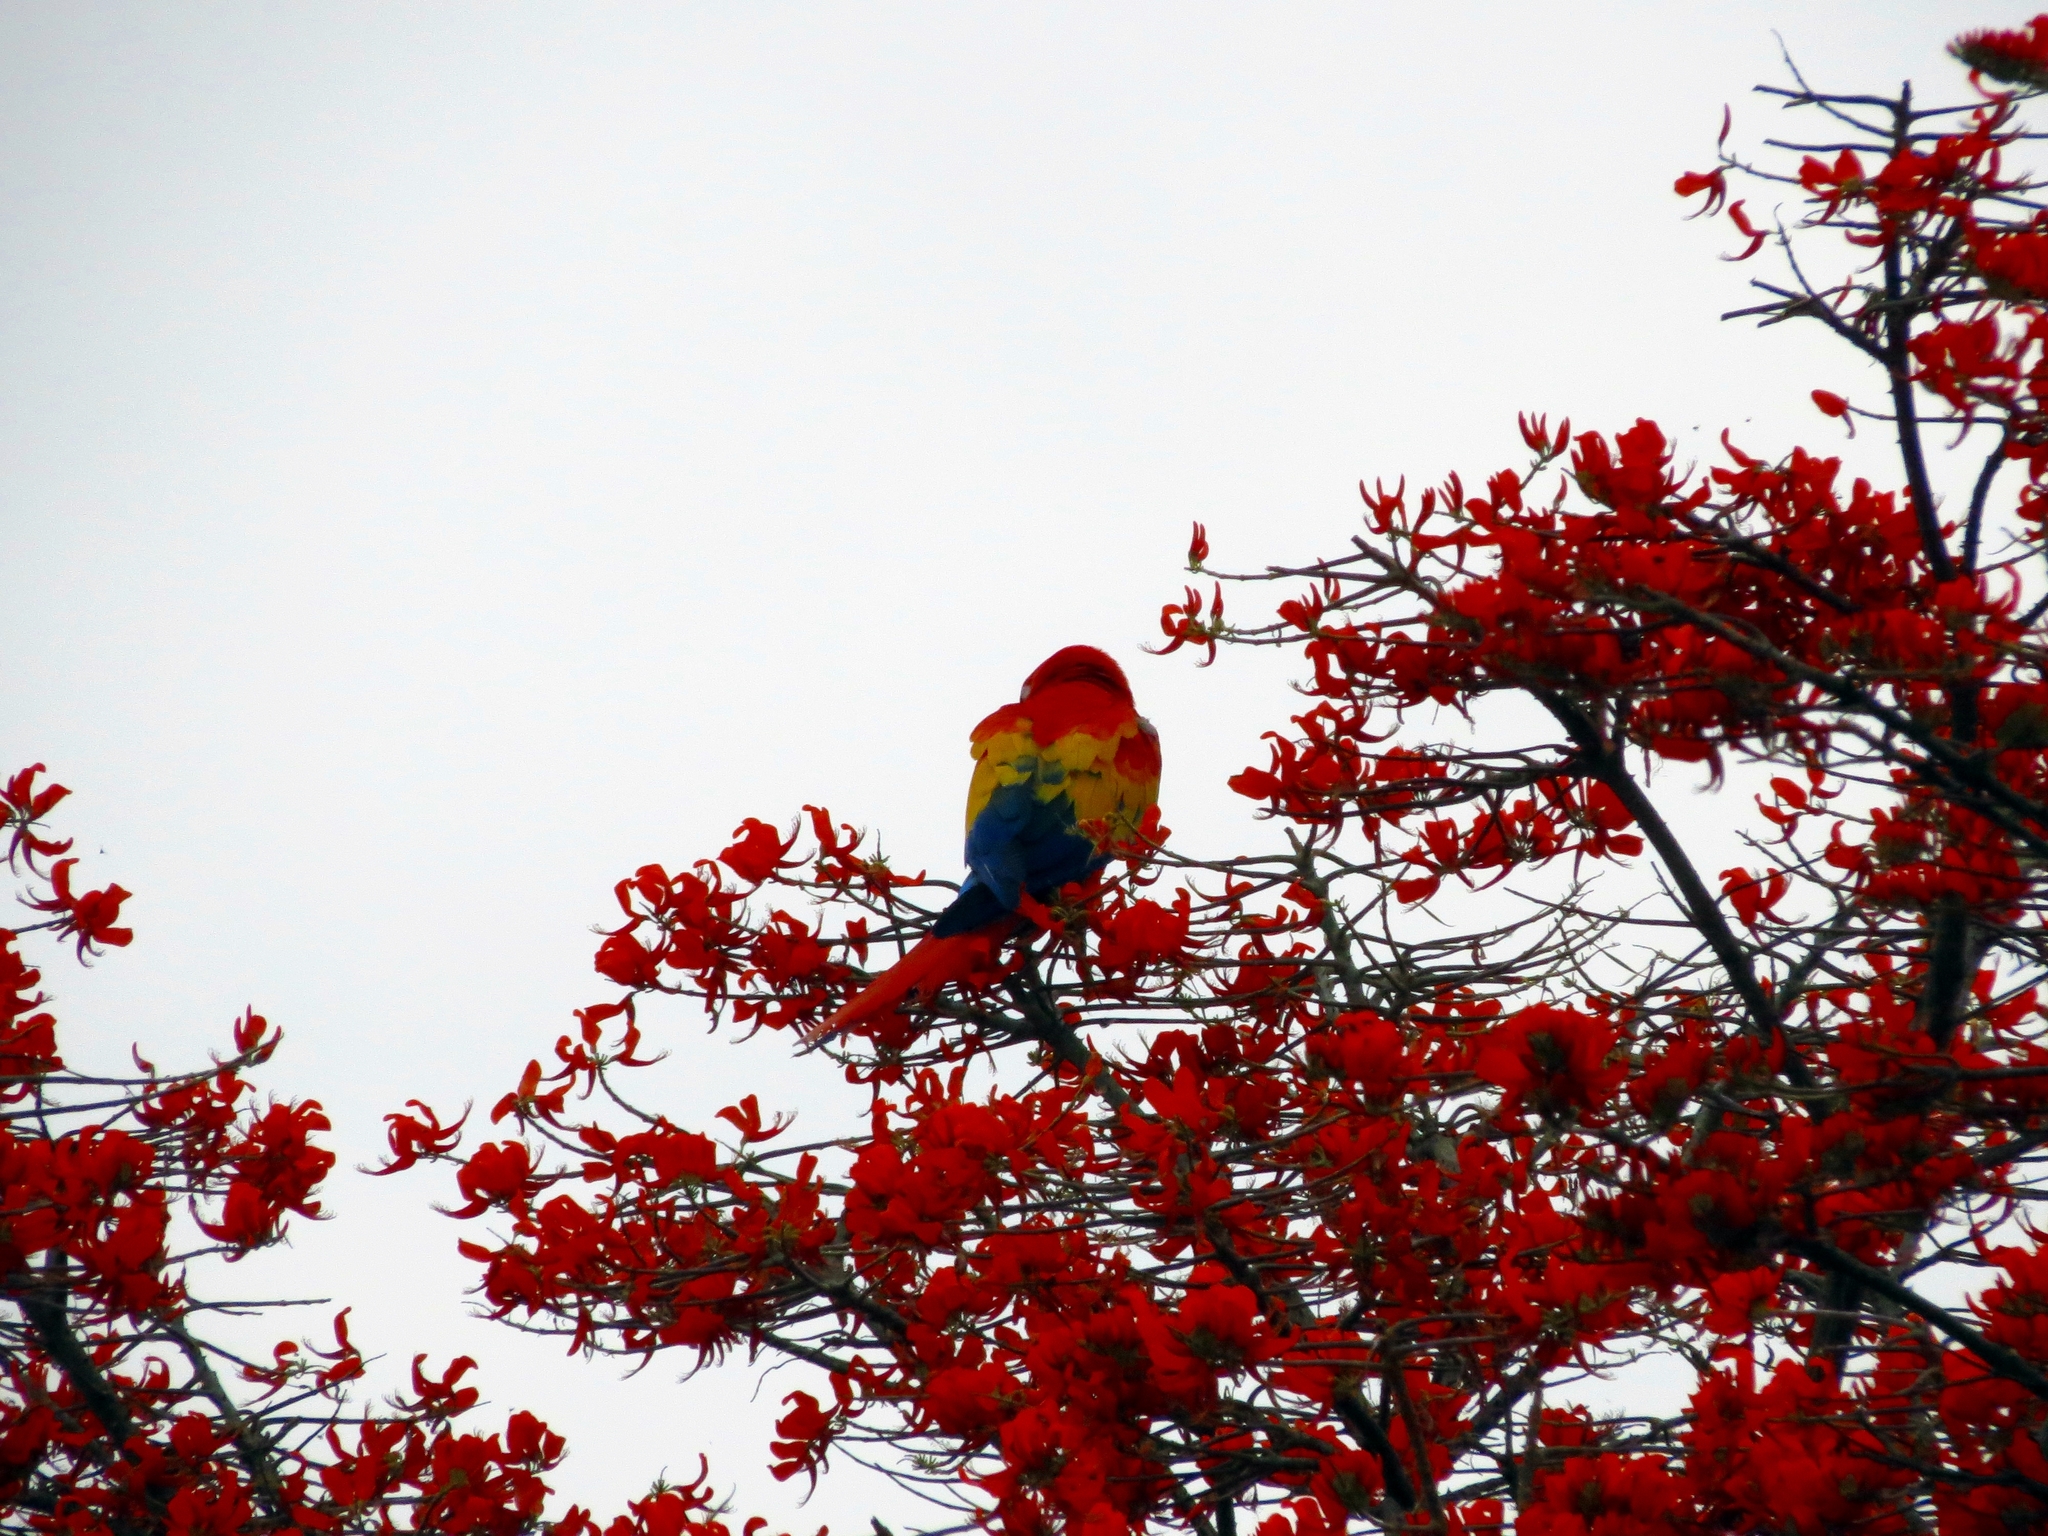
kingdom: Animalia
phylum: Chordata
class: Aves
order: Psittaciformes
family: Psittacidae
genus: Ara
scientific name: Ara macao
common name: Scarlet macaw
